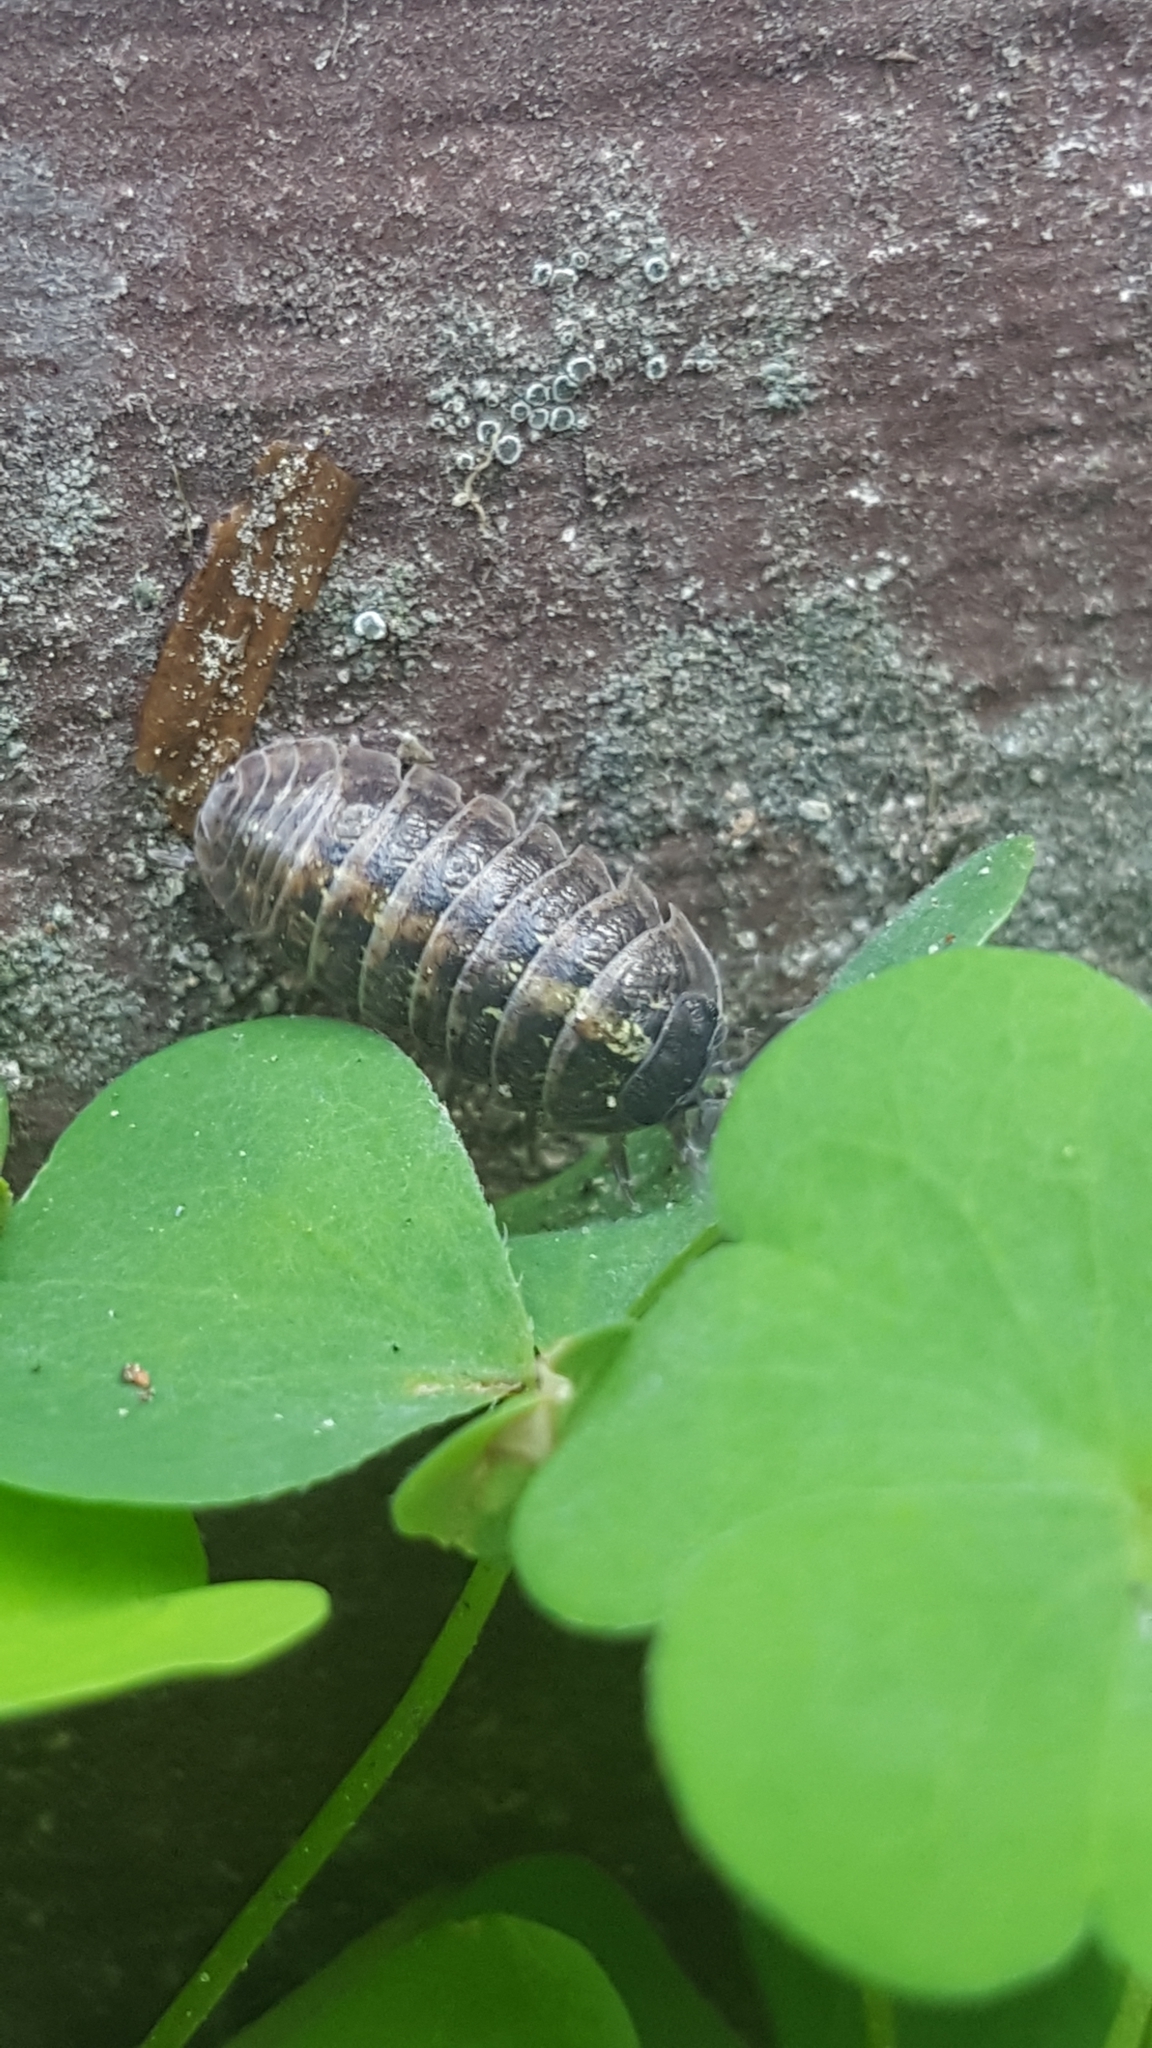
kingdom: Animalia
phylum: Arthropoda
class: Malacostraca
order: Isopoda
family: Armadillidiidae
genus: Armadillidium
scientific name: Armadillidium vulgare
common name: Common pill woodlouse
